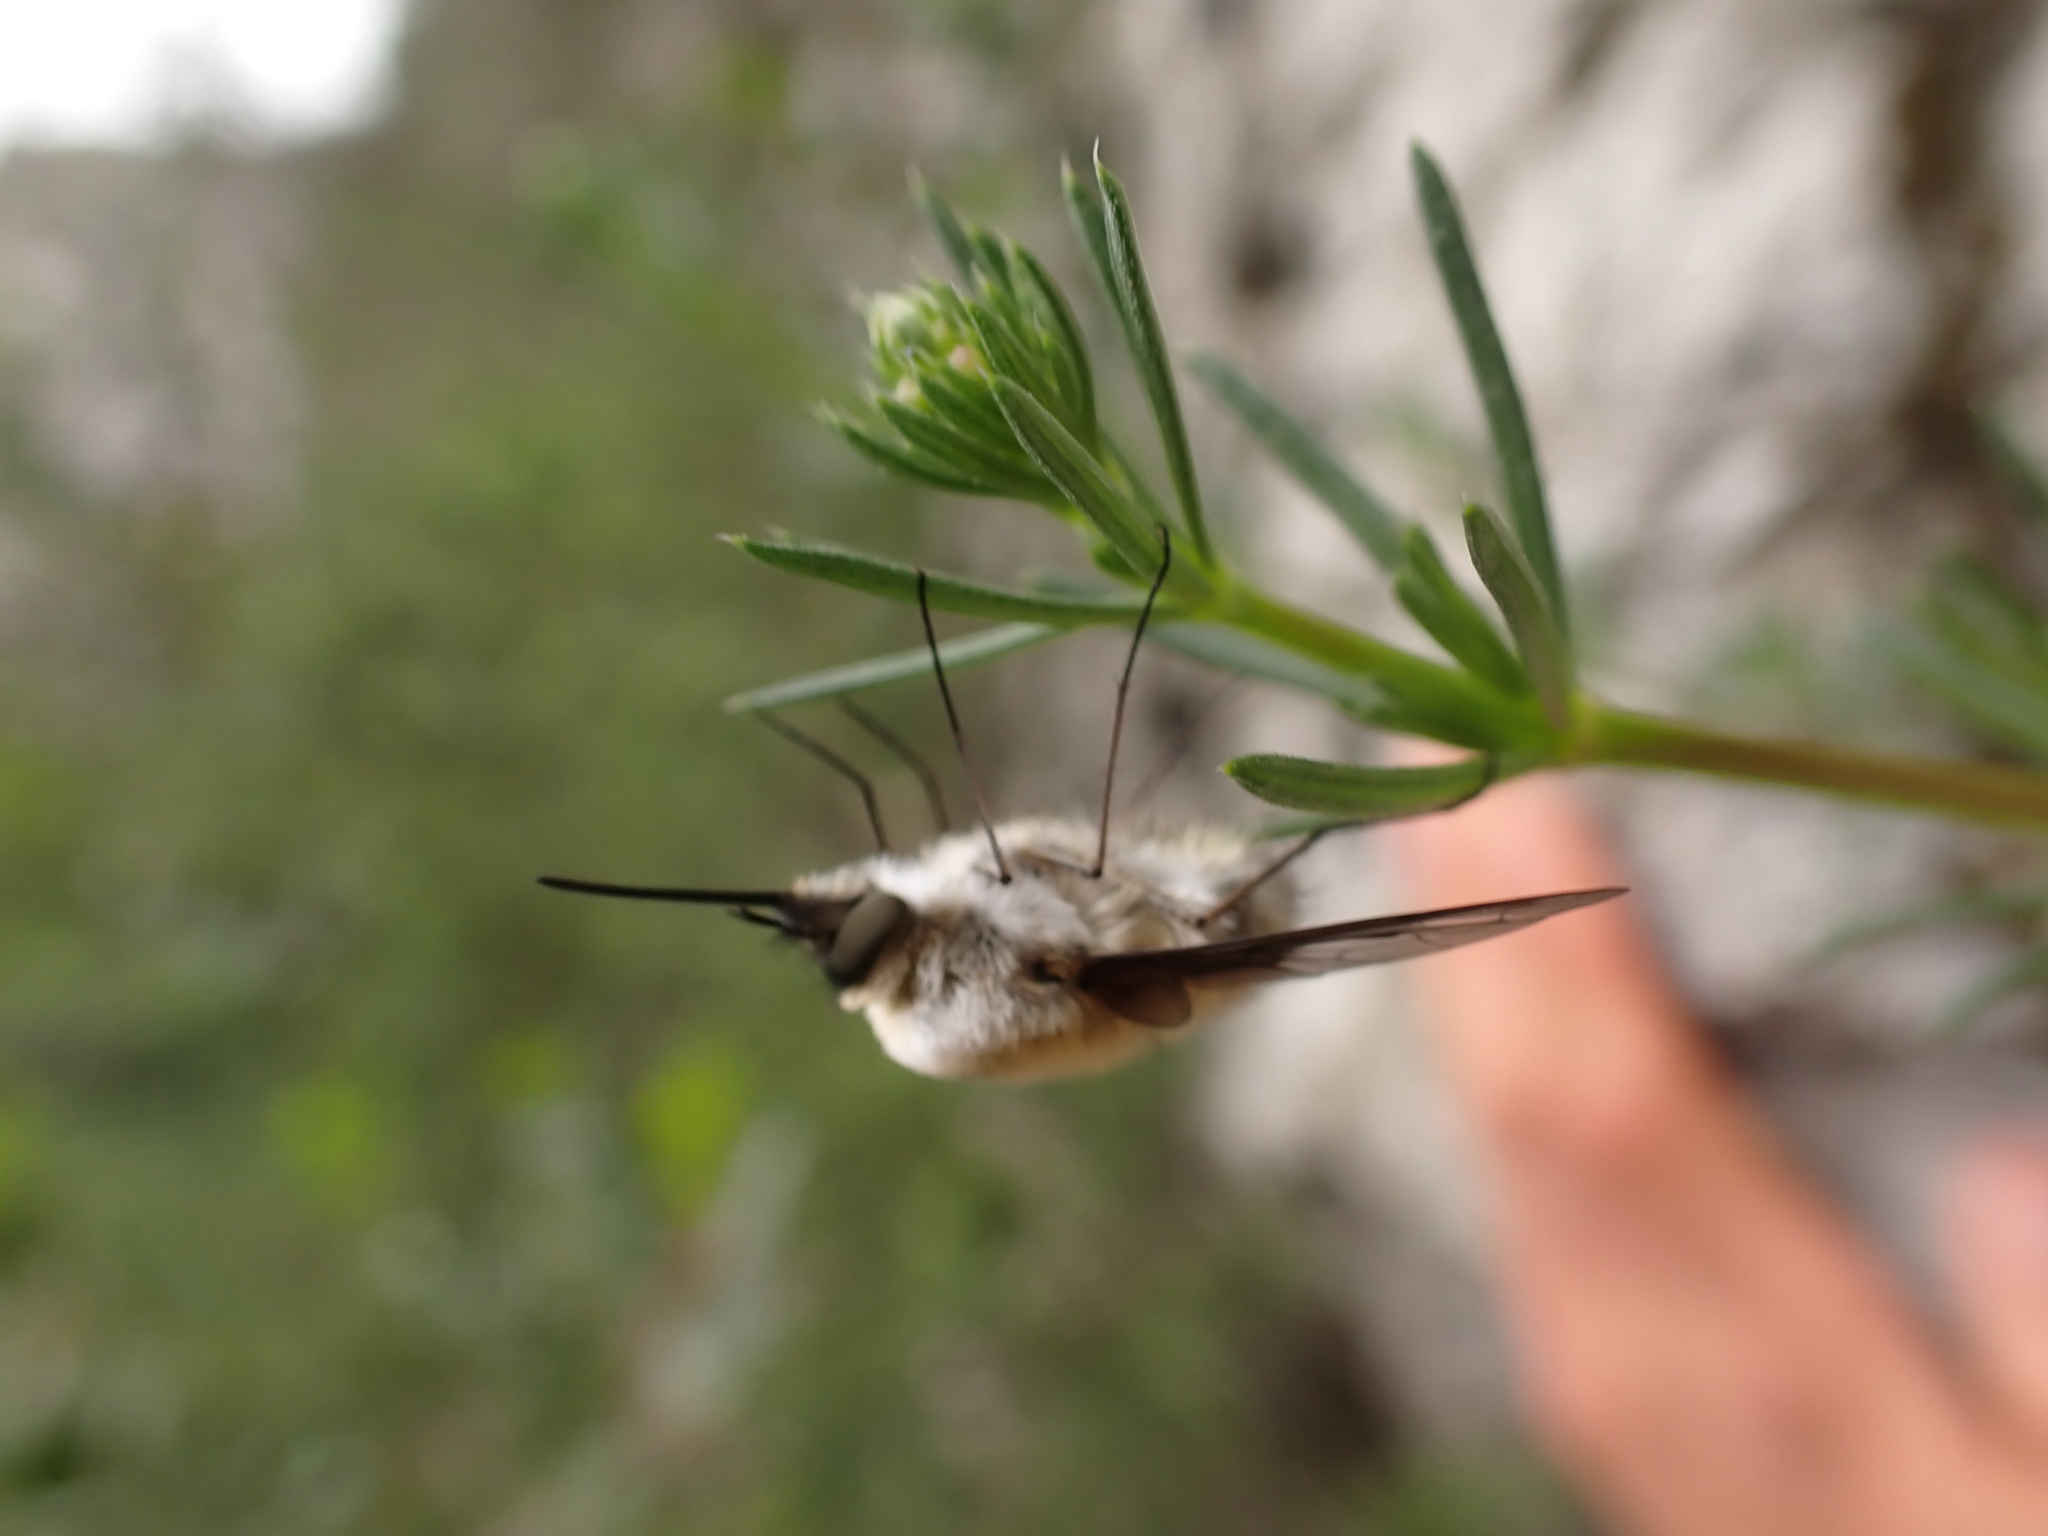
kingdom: Animalia
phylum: Arthropoda
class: Insecta
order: Diptera
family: Bombyliidae
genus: Bombylius
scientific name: Bombylius fimbriatus
